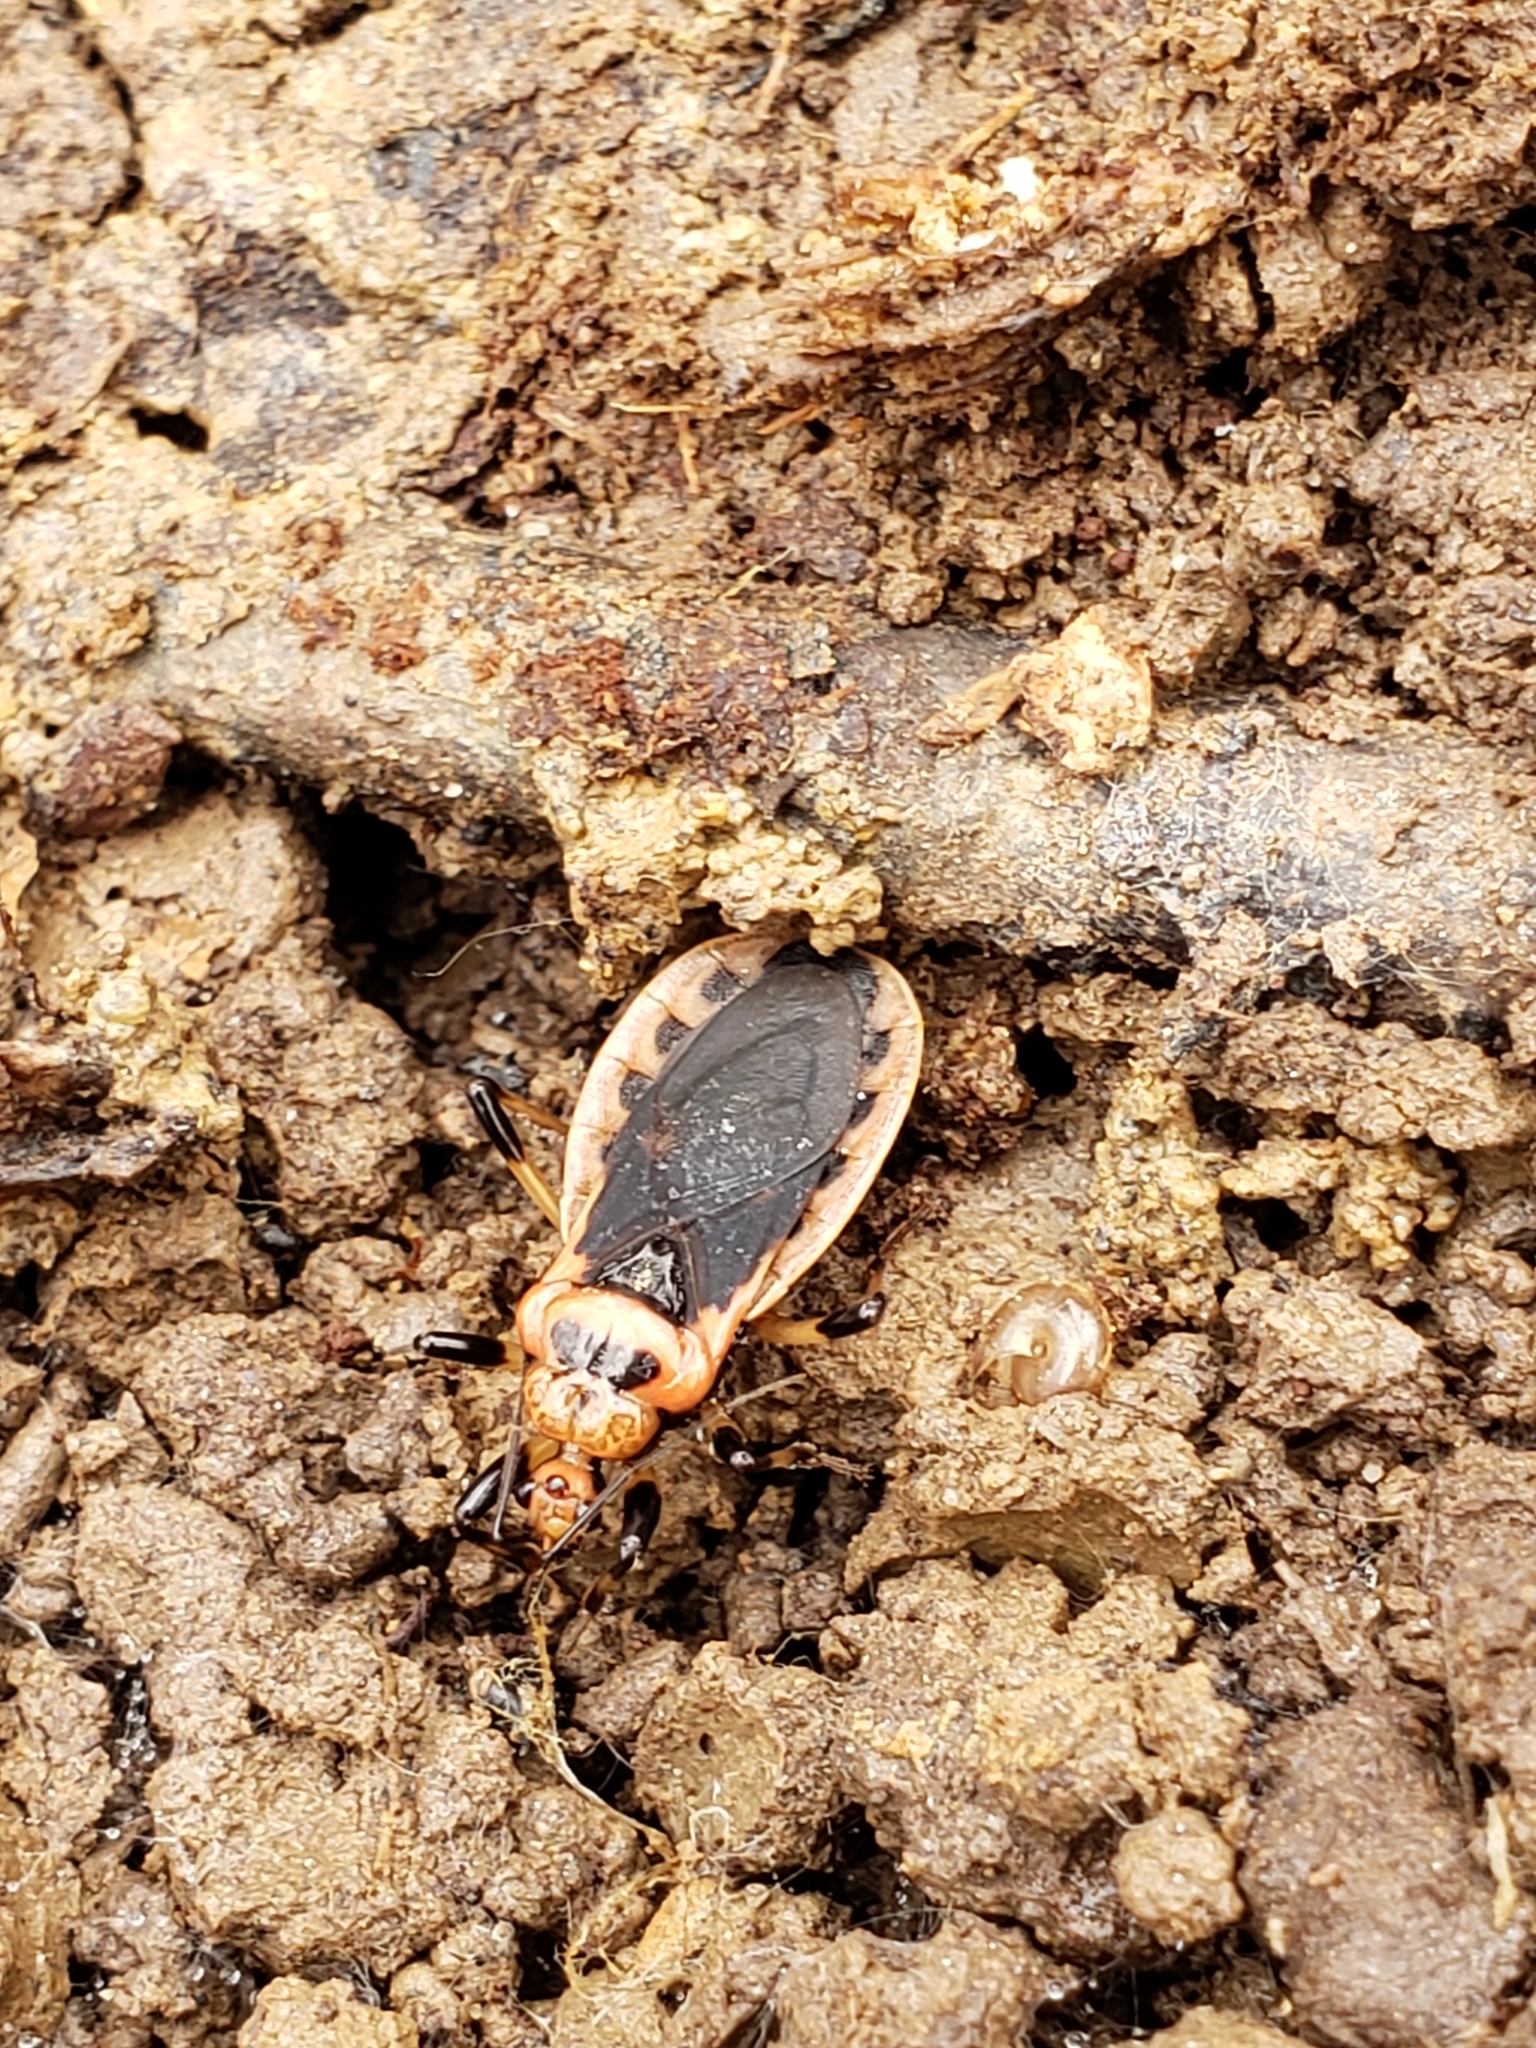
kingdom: Animalia
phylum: Arthropoda
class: Insecta
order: Hemiptera
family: Reduviidae
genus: Rhiginia
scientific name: Rhiginia cruciata
